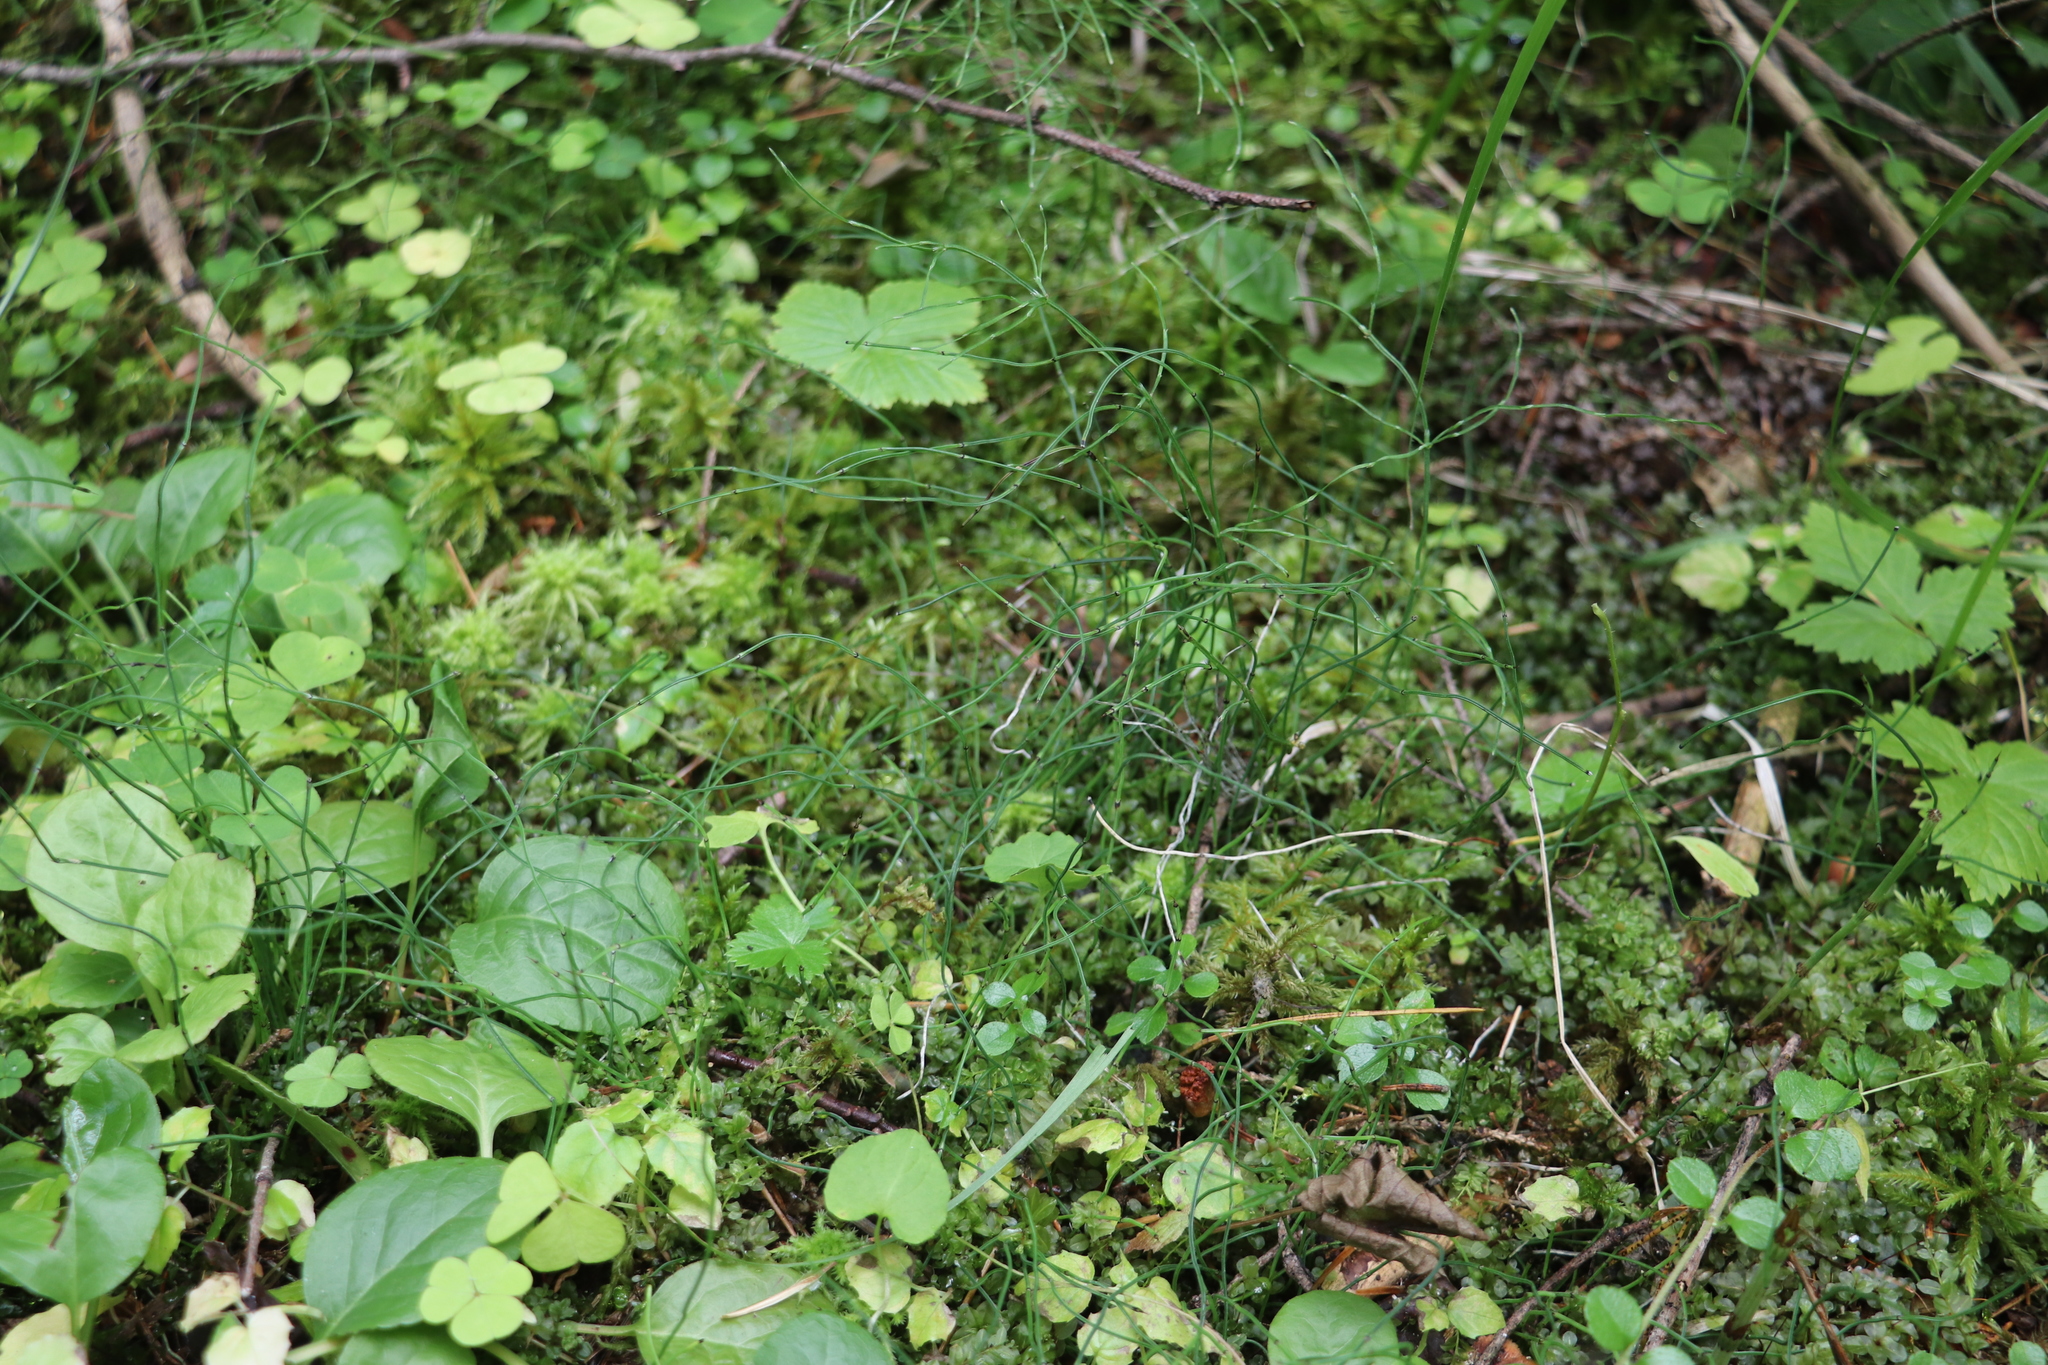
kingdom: Plantae
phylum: Tracheophyta
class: Polypodiopsida
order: Equisetales
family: Equisetaceae
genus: Equisetum
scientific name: Equisetum scirpoides
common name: Delicate horsetail
